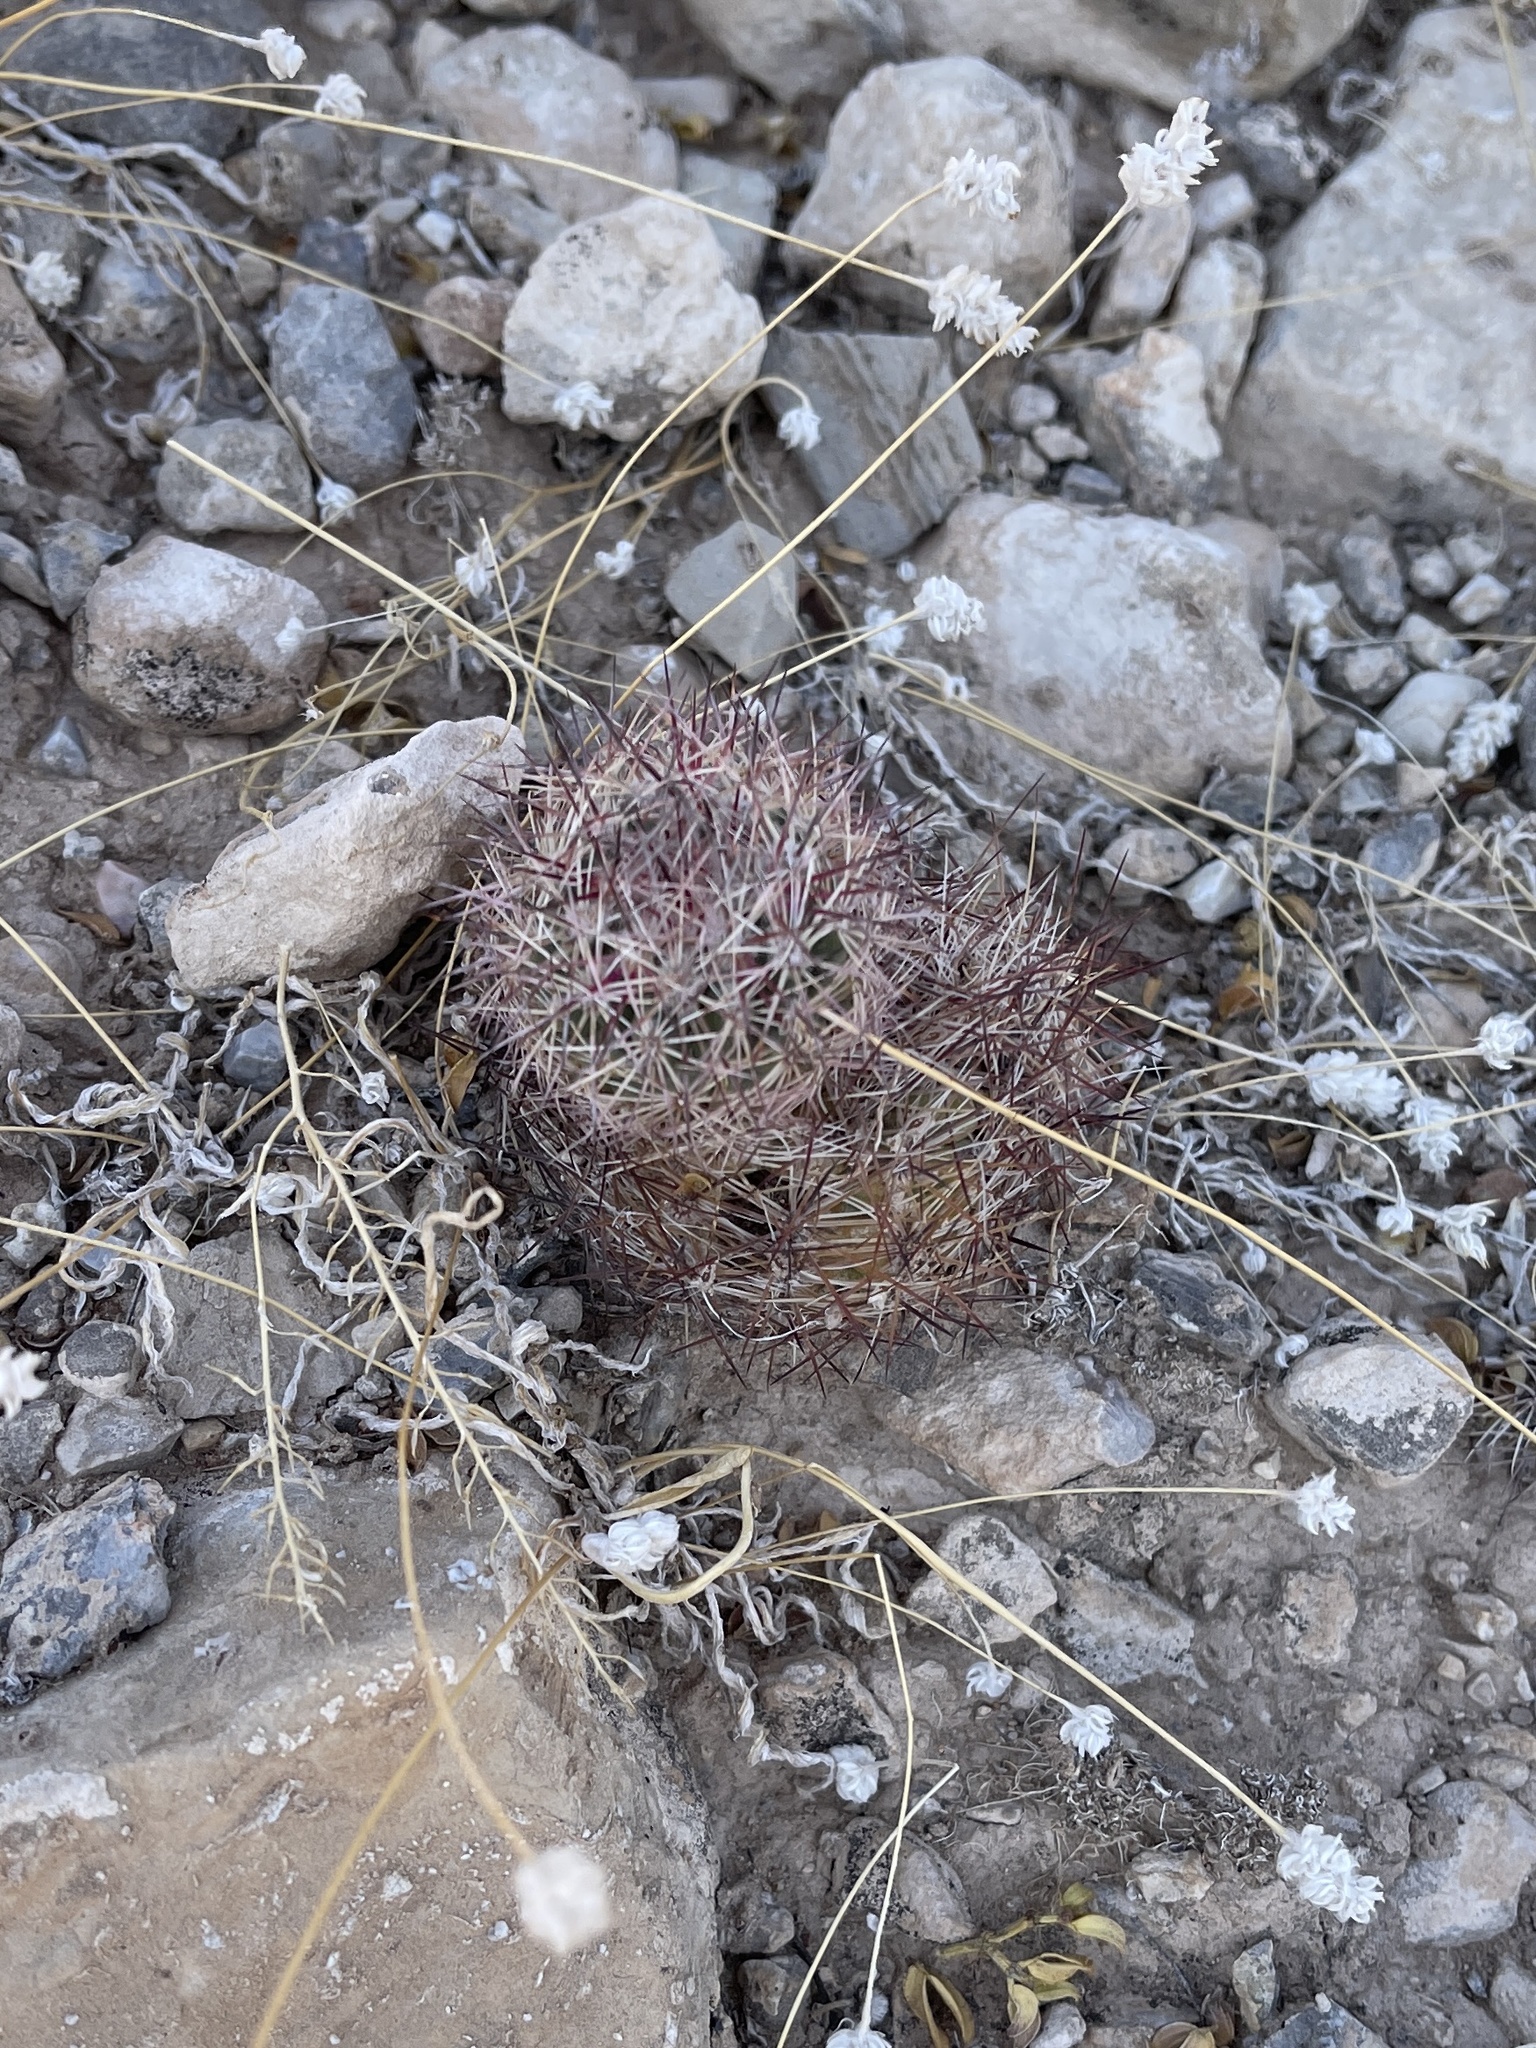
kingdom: Plantae
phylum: Tracheophyta
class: Magnoliopsida
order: Caryophyllales
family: Cactaceae
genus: Sclerocactus
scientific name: Sclerocactus intertextus
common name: White fish-hook cactus
